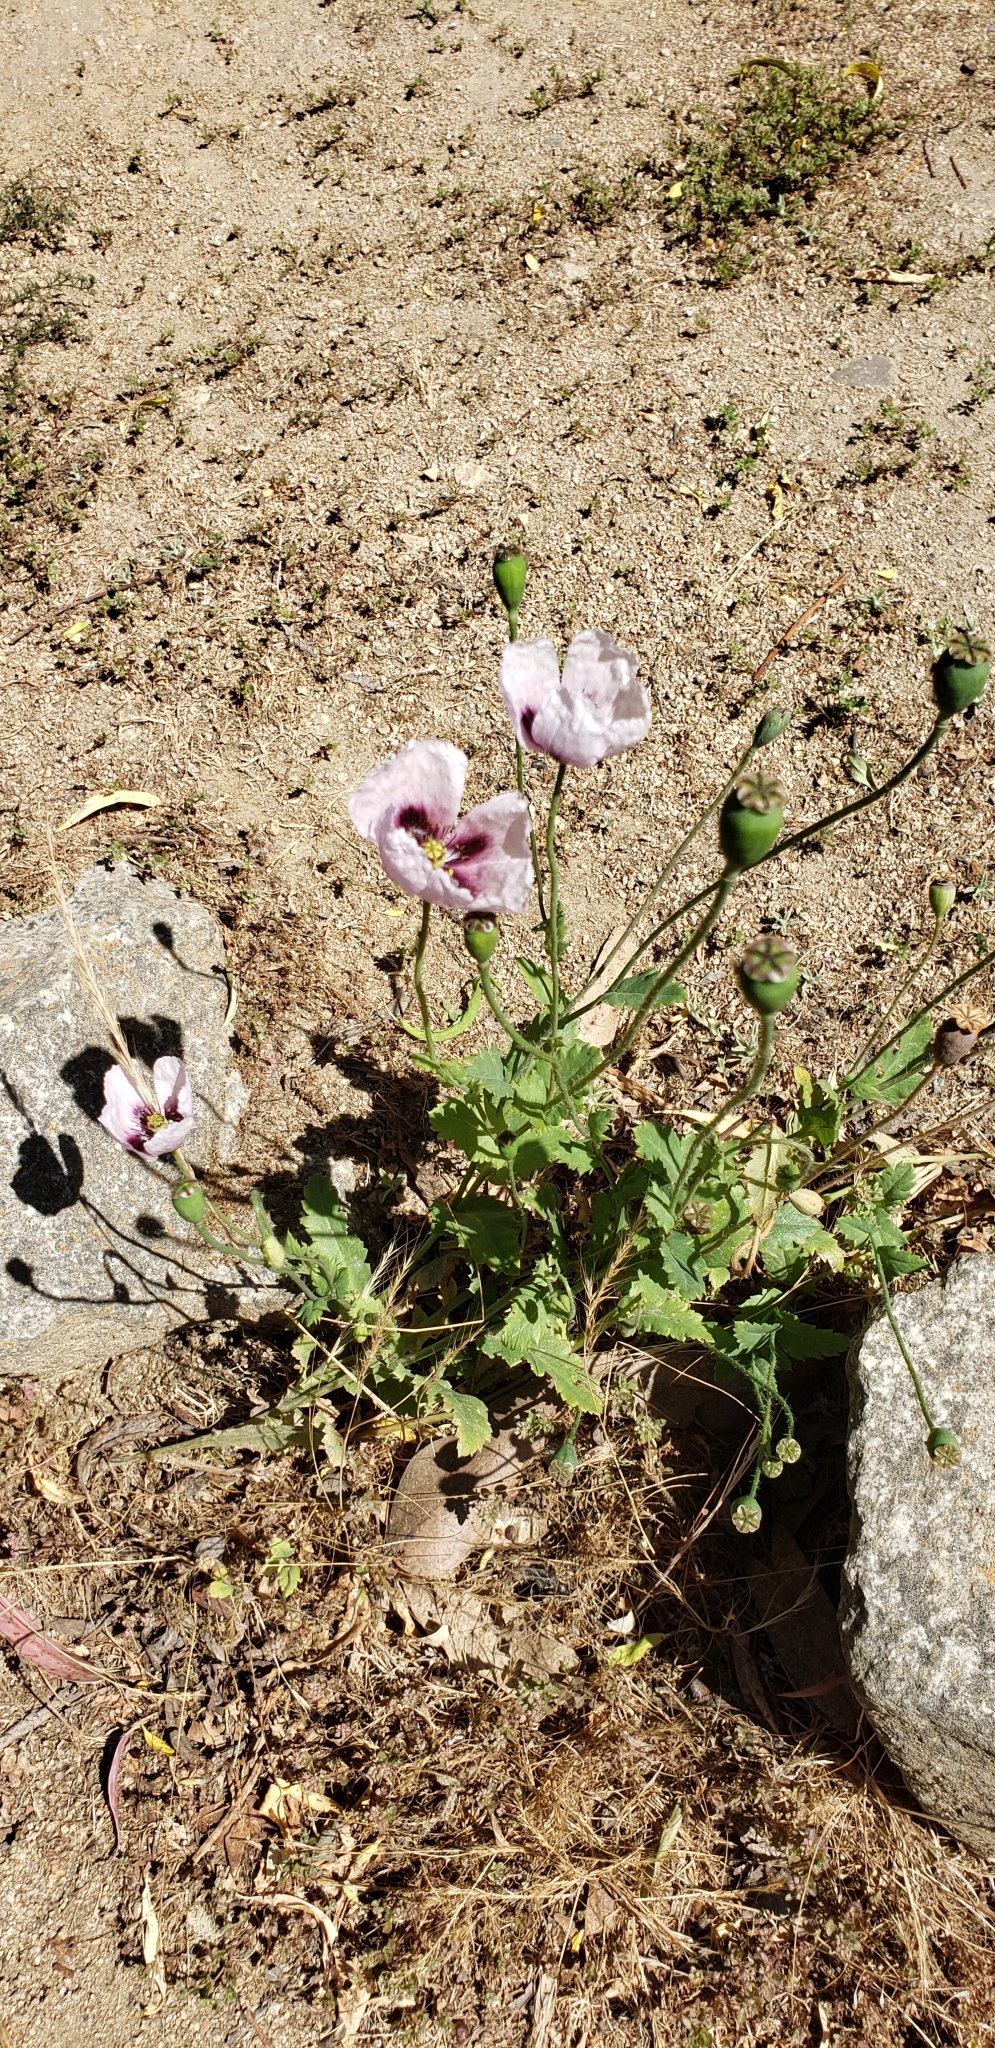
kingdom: Plantae
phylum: Tracheophyta
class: Magnoliopsida
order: Ranunculales
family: Papaveraceae
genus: Papaver
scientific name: Papaver somniferum
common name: Opium poppy
